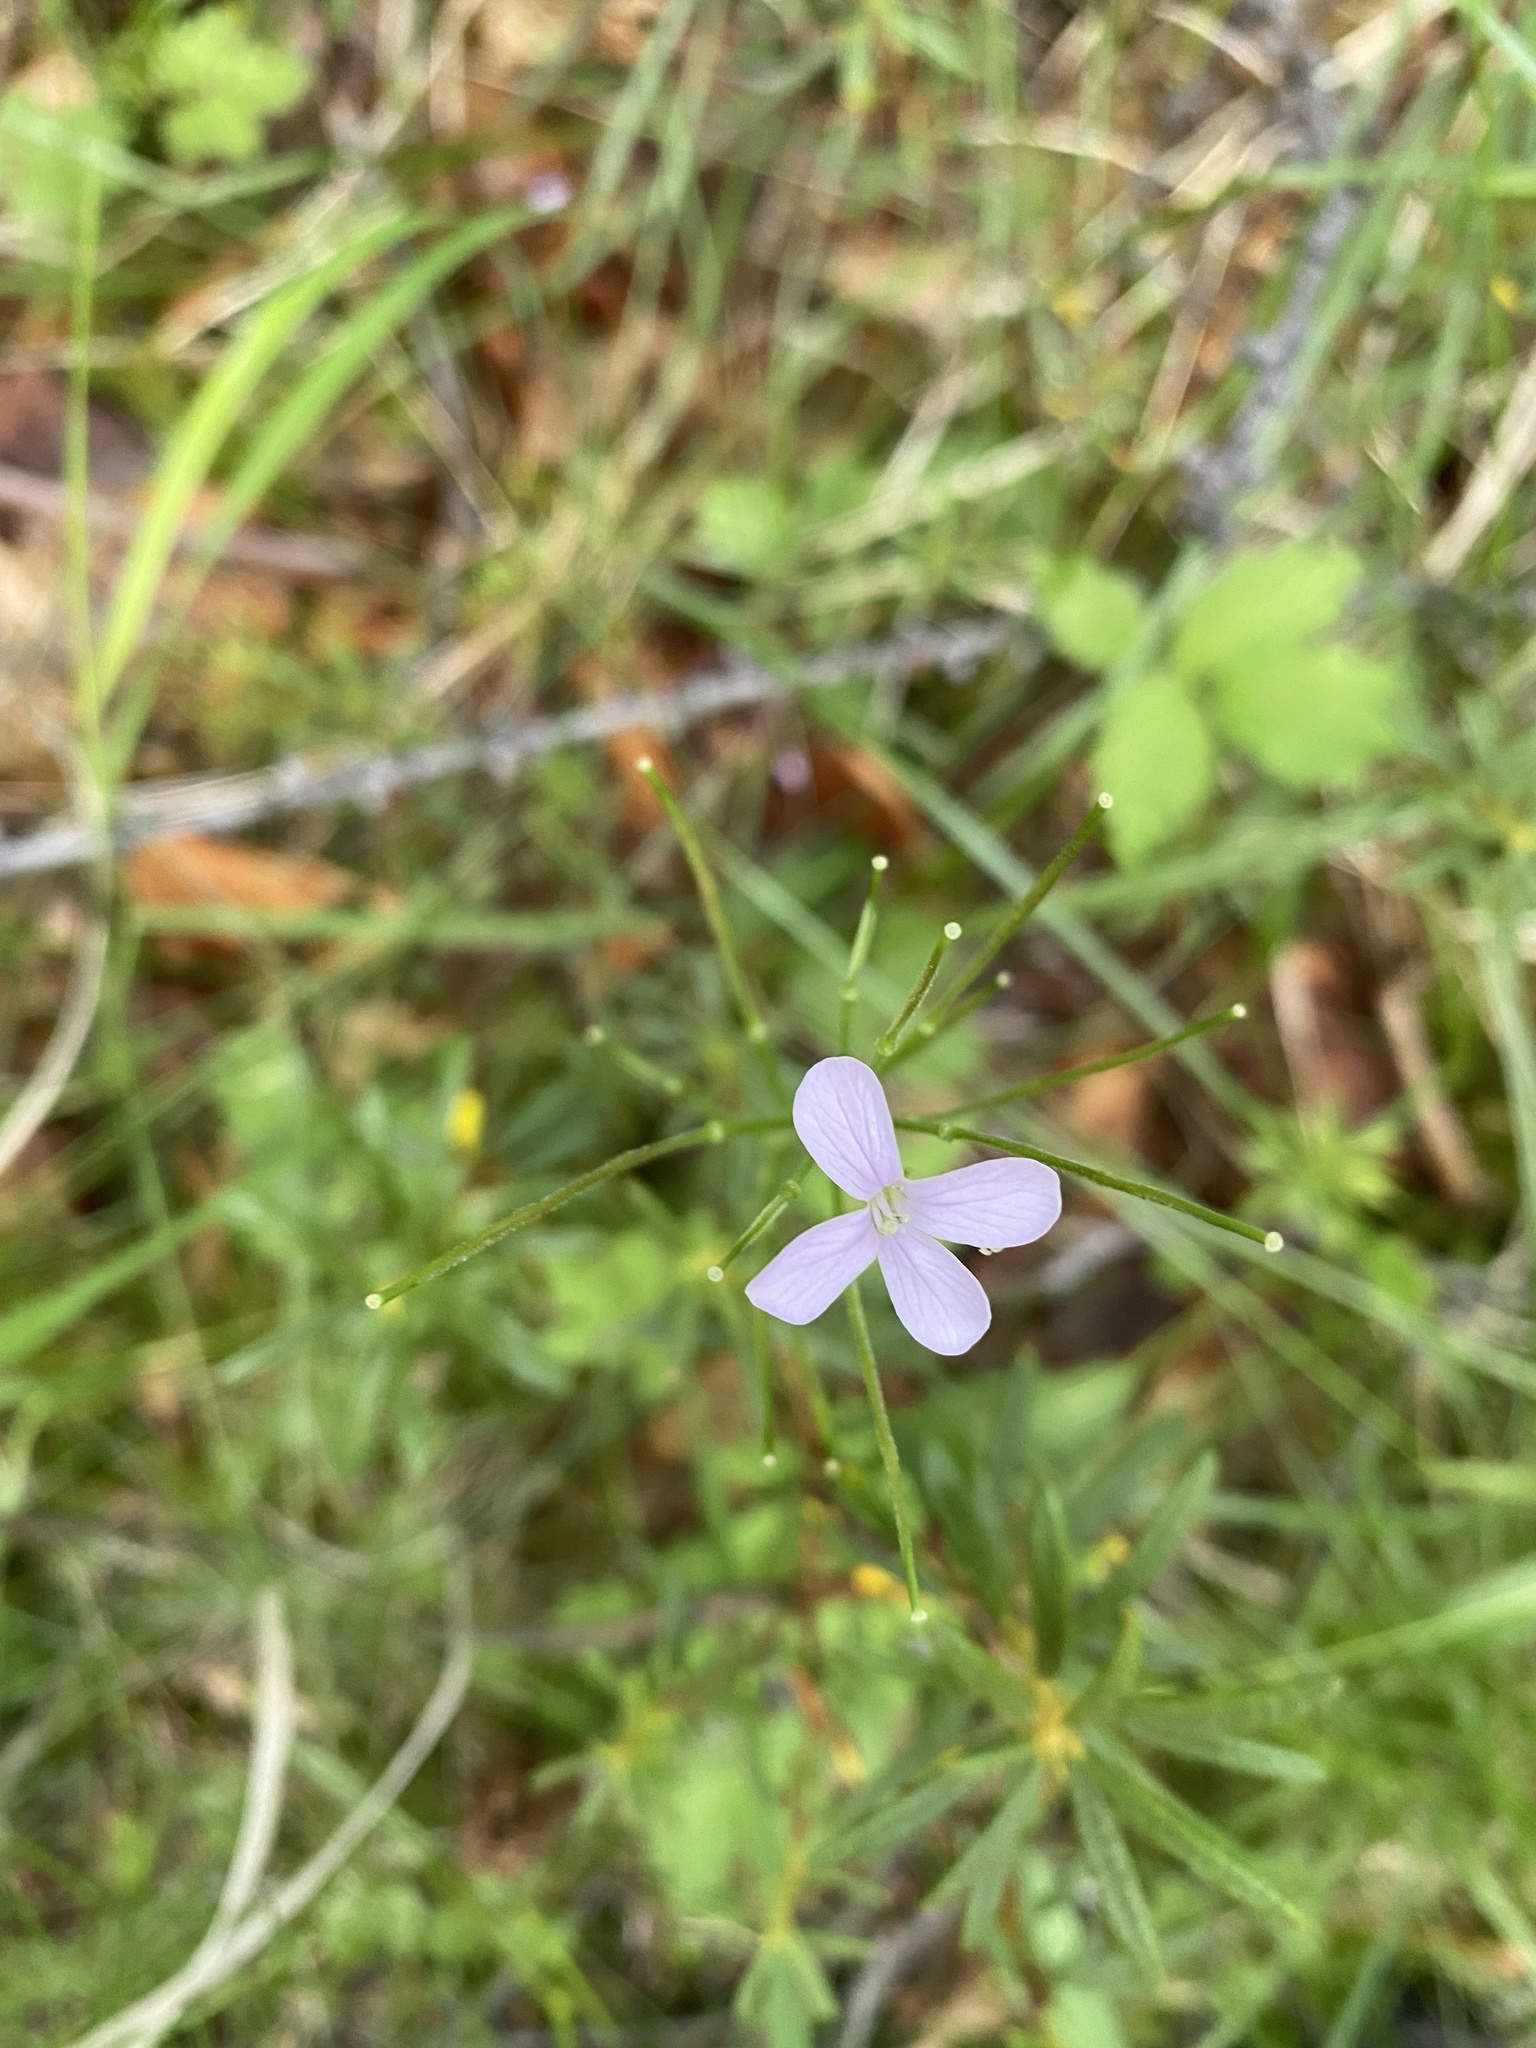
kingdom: Plantae
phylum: Tracheophyta
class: Magnoliopsida
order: Brassicales
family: Brassicaceae
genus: Cardamine
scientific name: Cardamine macrophylla
